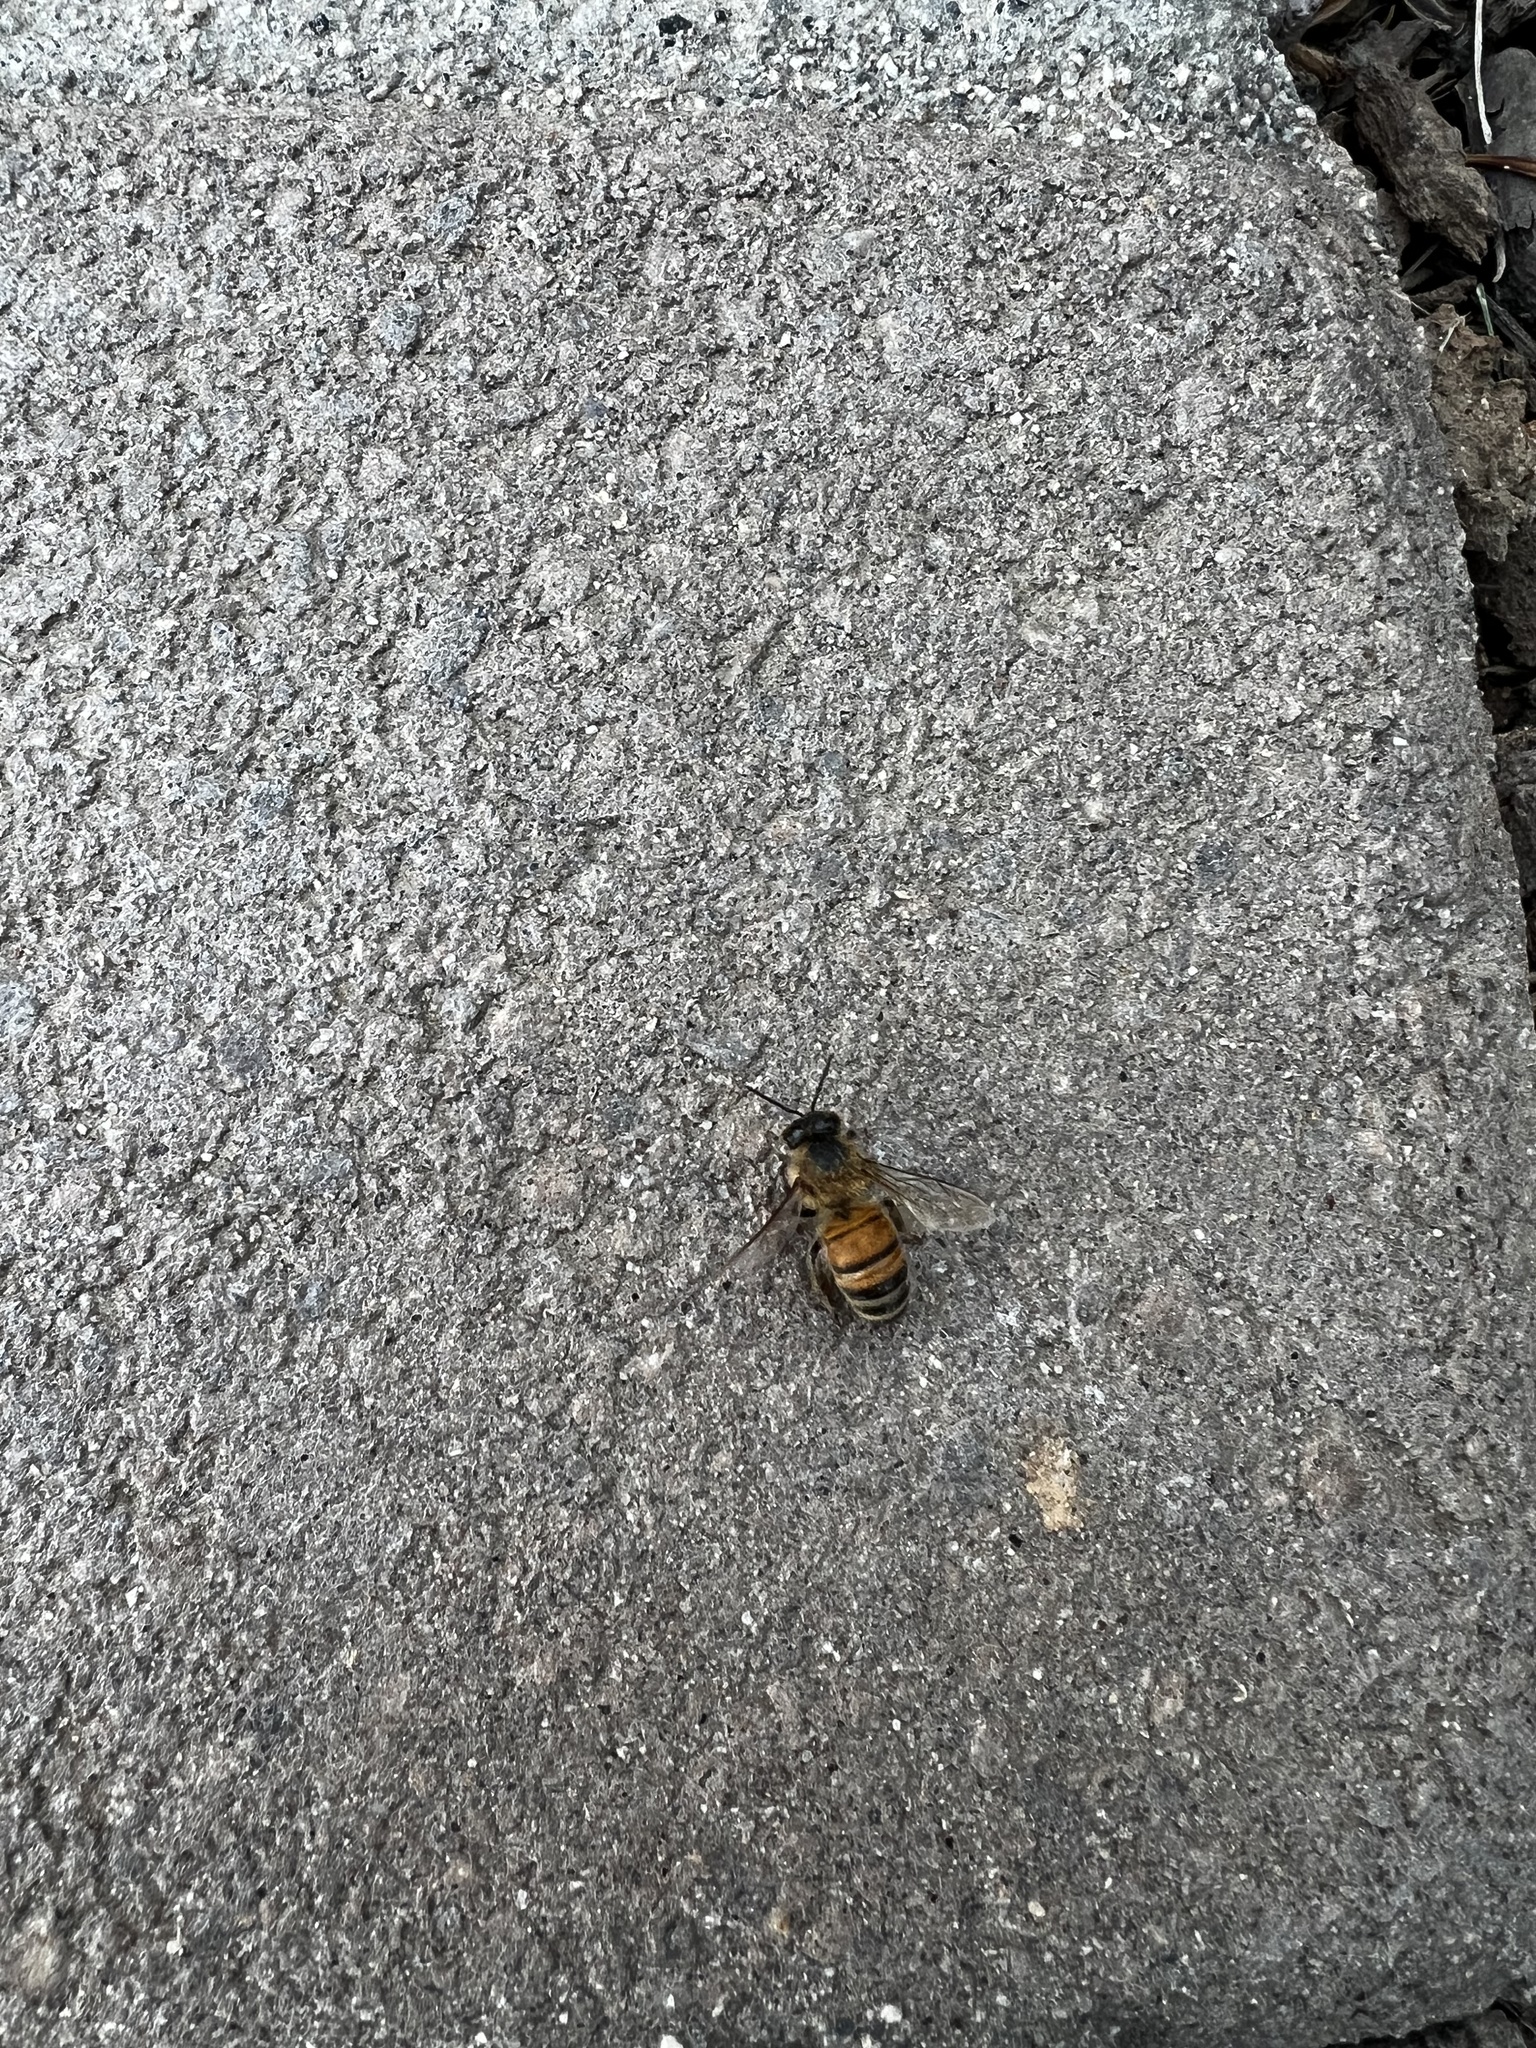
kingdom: Animalia
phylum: Arthropoda
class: Insecta
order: Hymenoptera
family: Apidae
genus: Apis
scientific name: Apis mellifera
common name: Honey bee
